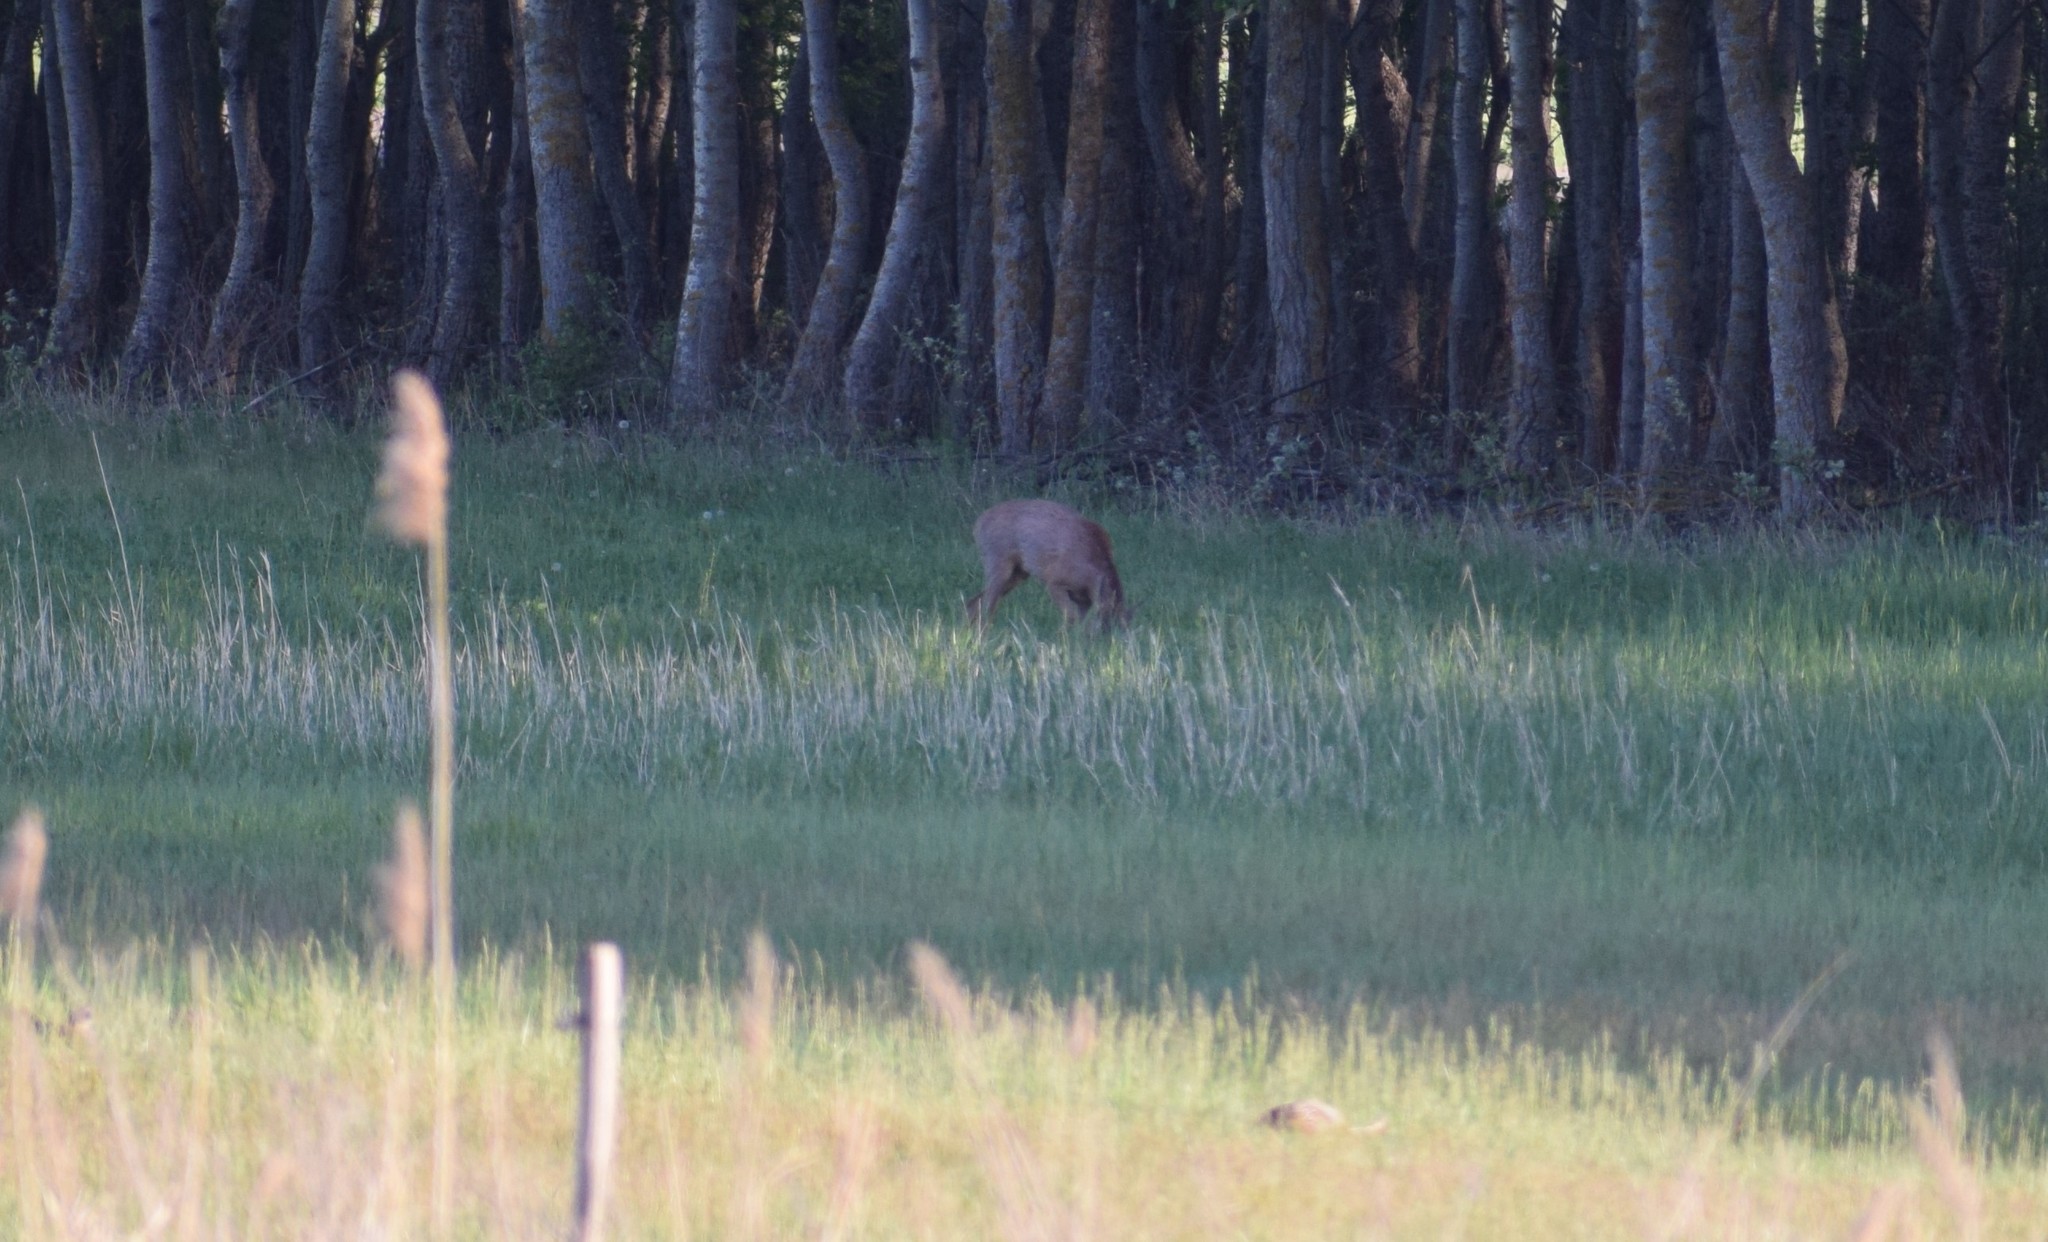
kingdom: Animalia
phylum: Chordata
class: Mammalia
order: Artiodactyla
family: Cervidae
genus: Capreolus
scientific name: Capreolus capreolus
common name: Western roe deer
